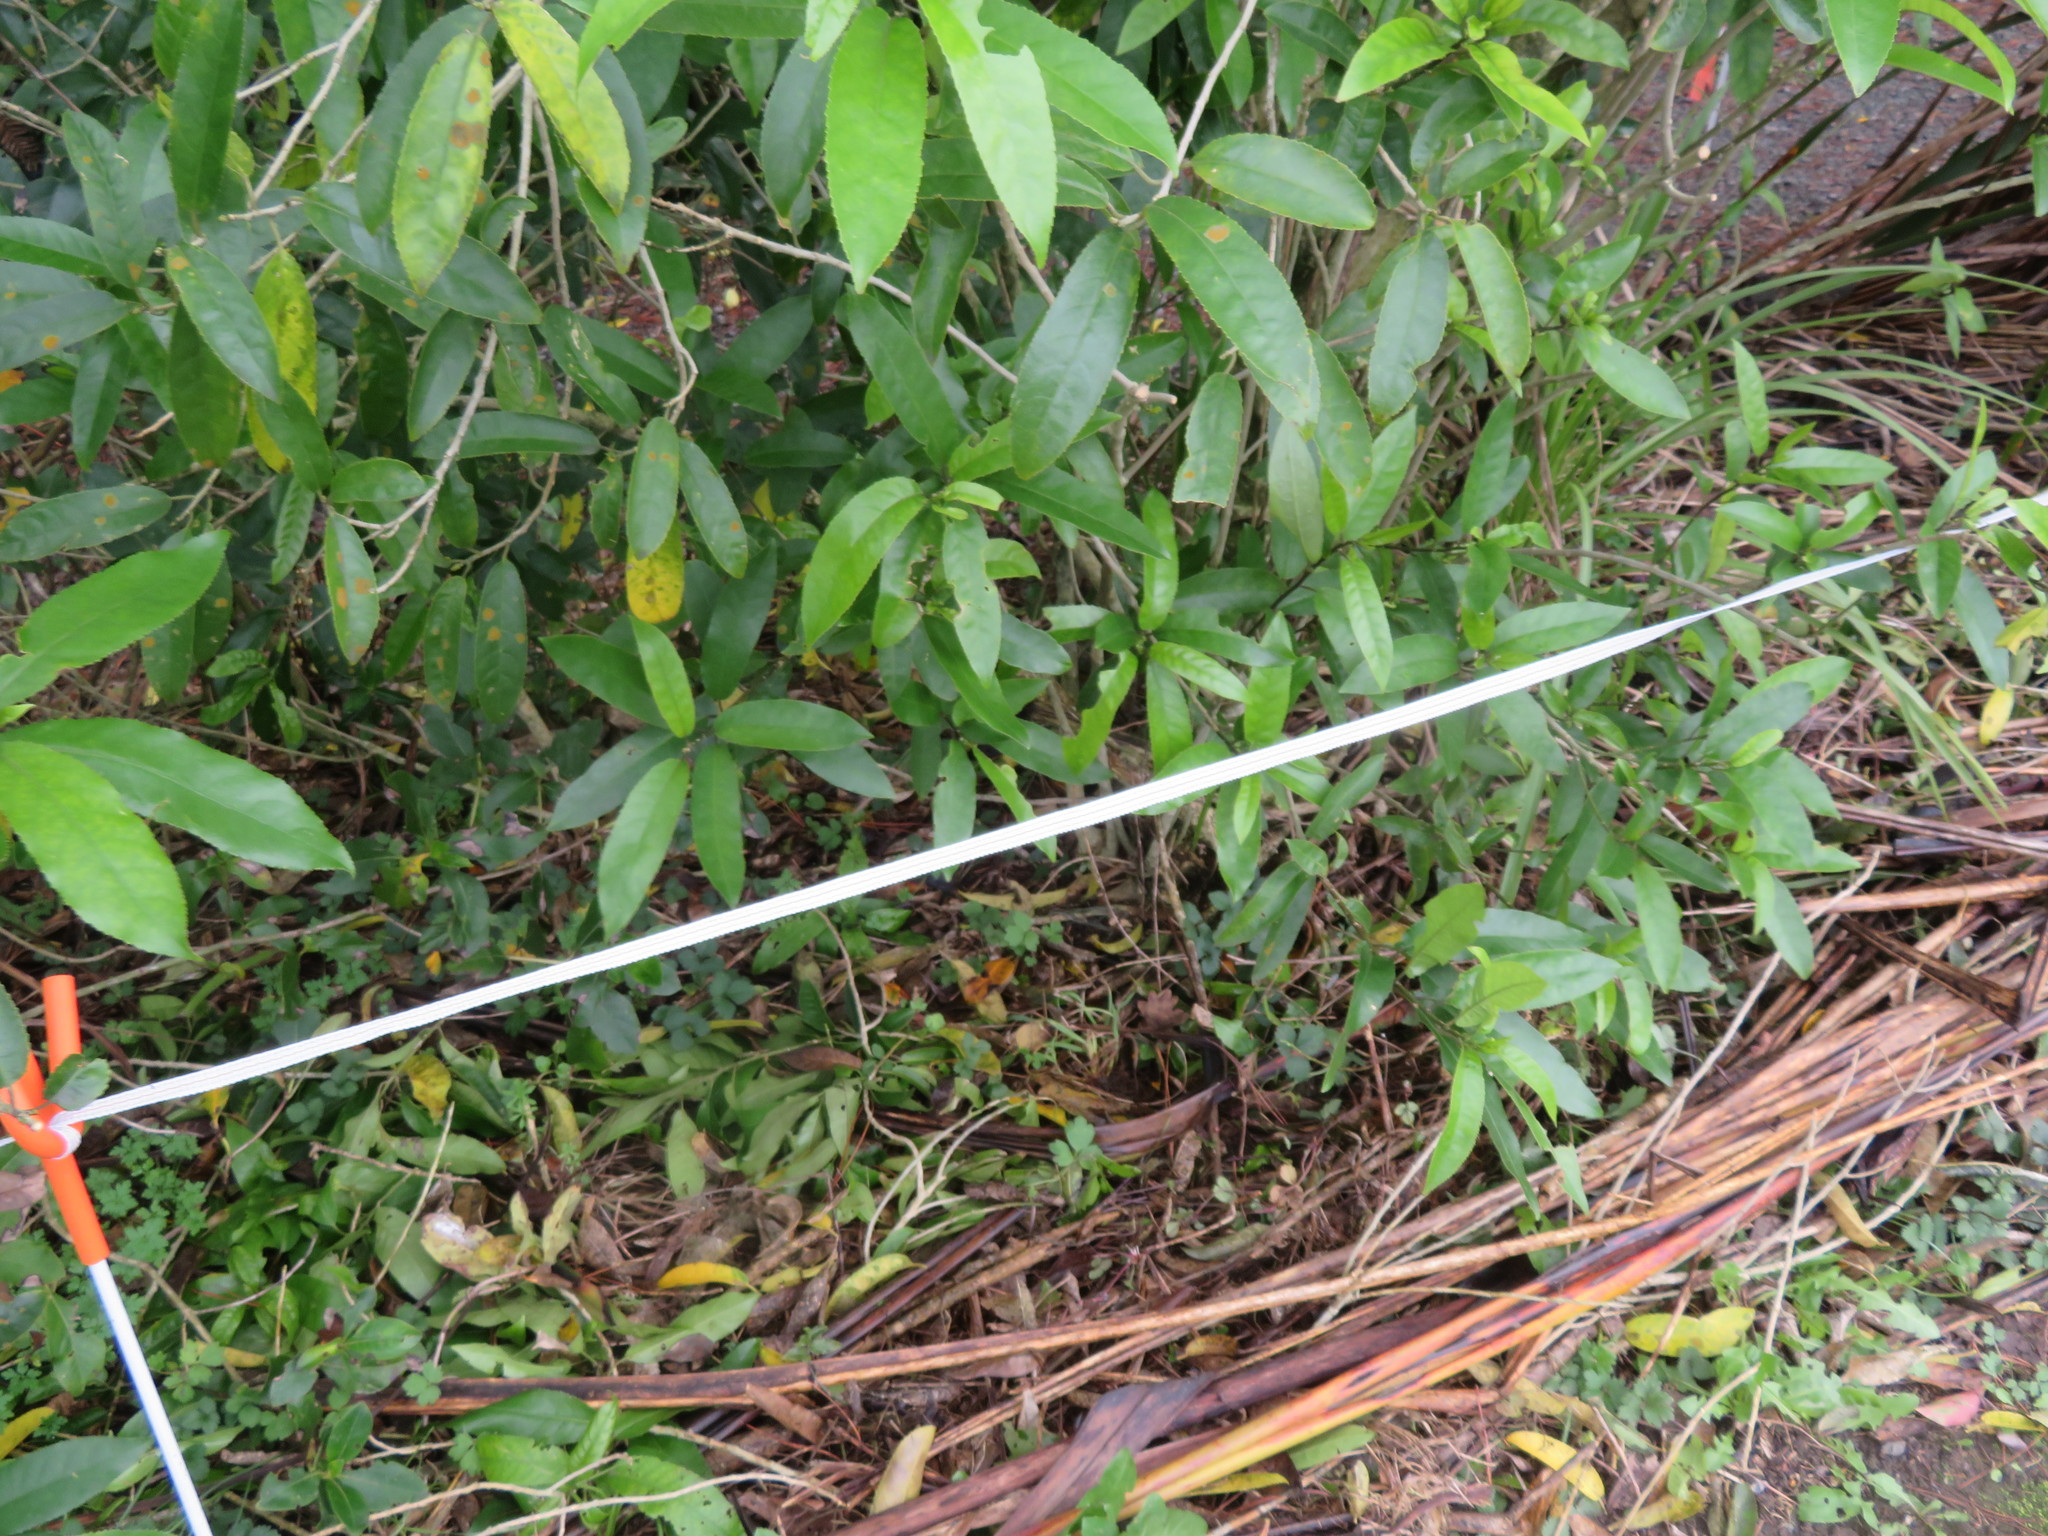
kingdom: Plantae
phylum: Tracheophyta
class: Magnoliopsida
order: Malpighiales
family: Violaceae
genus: Melicytus
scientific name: Melicytus ramiflorus
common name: Mahoe
